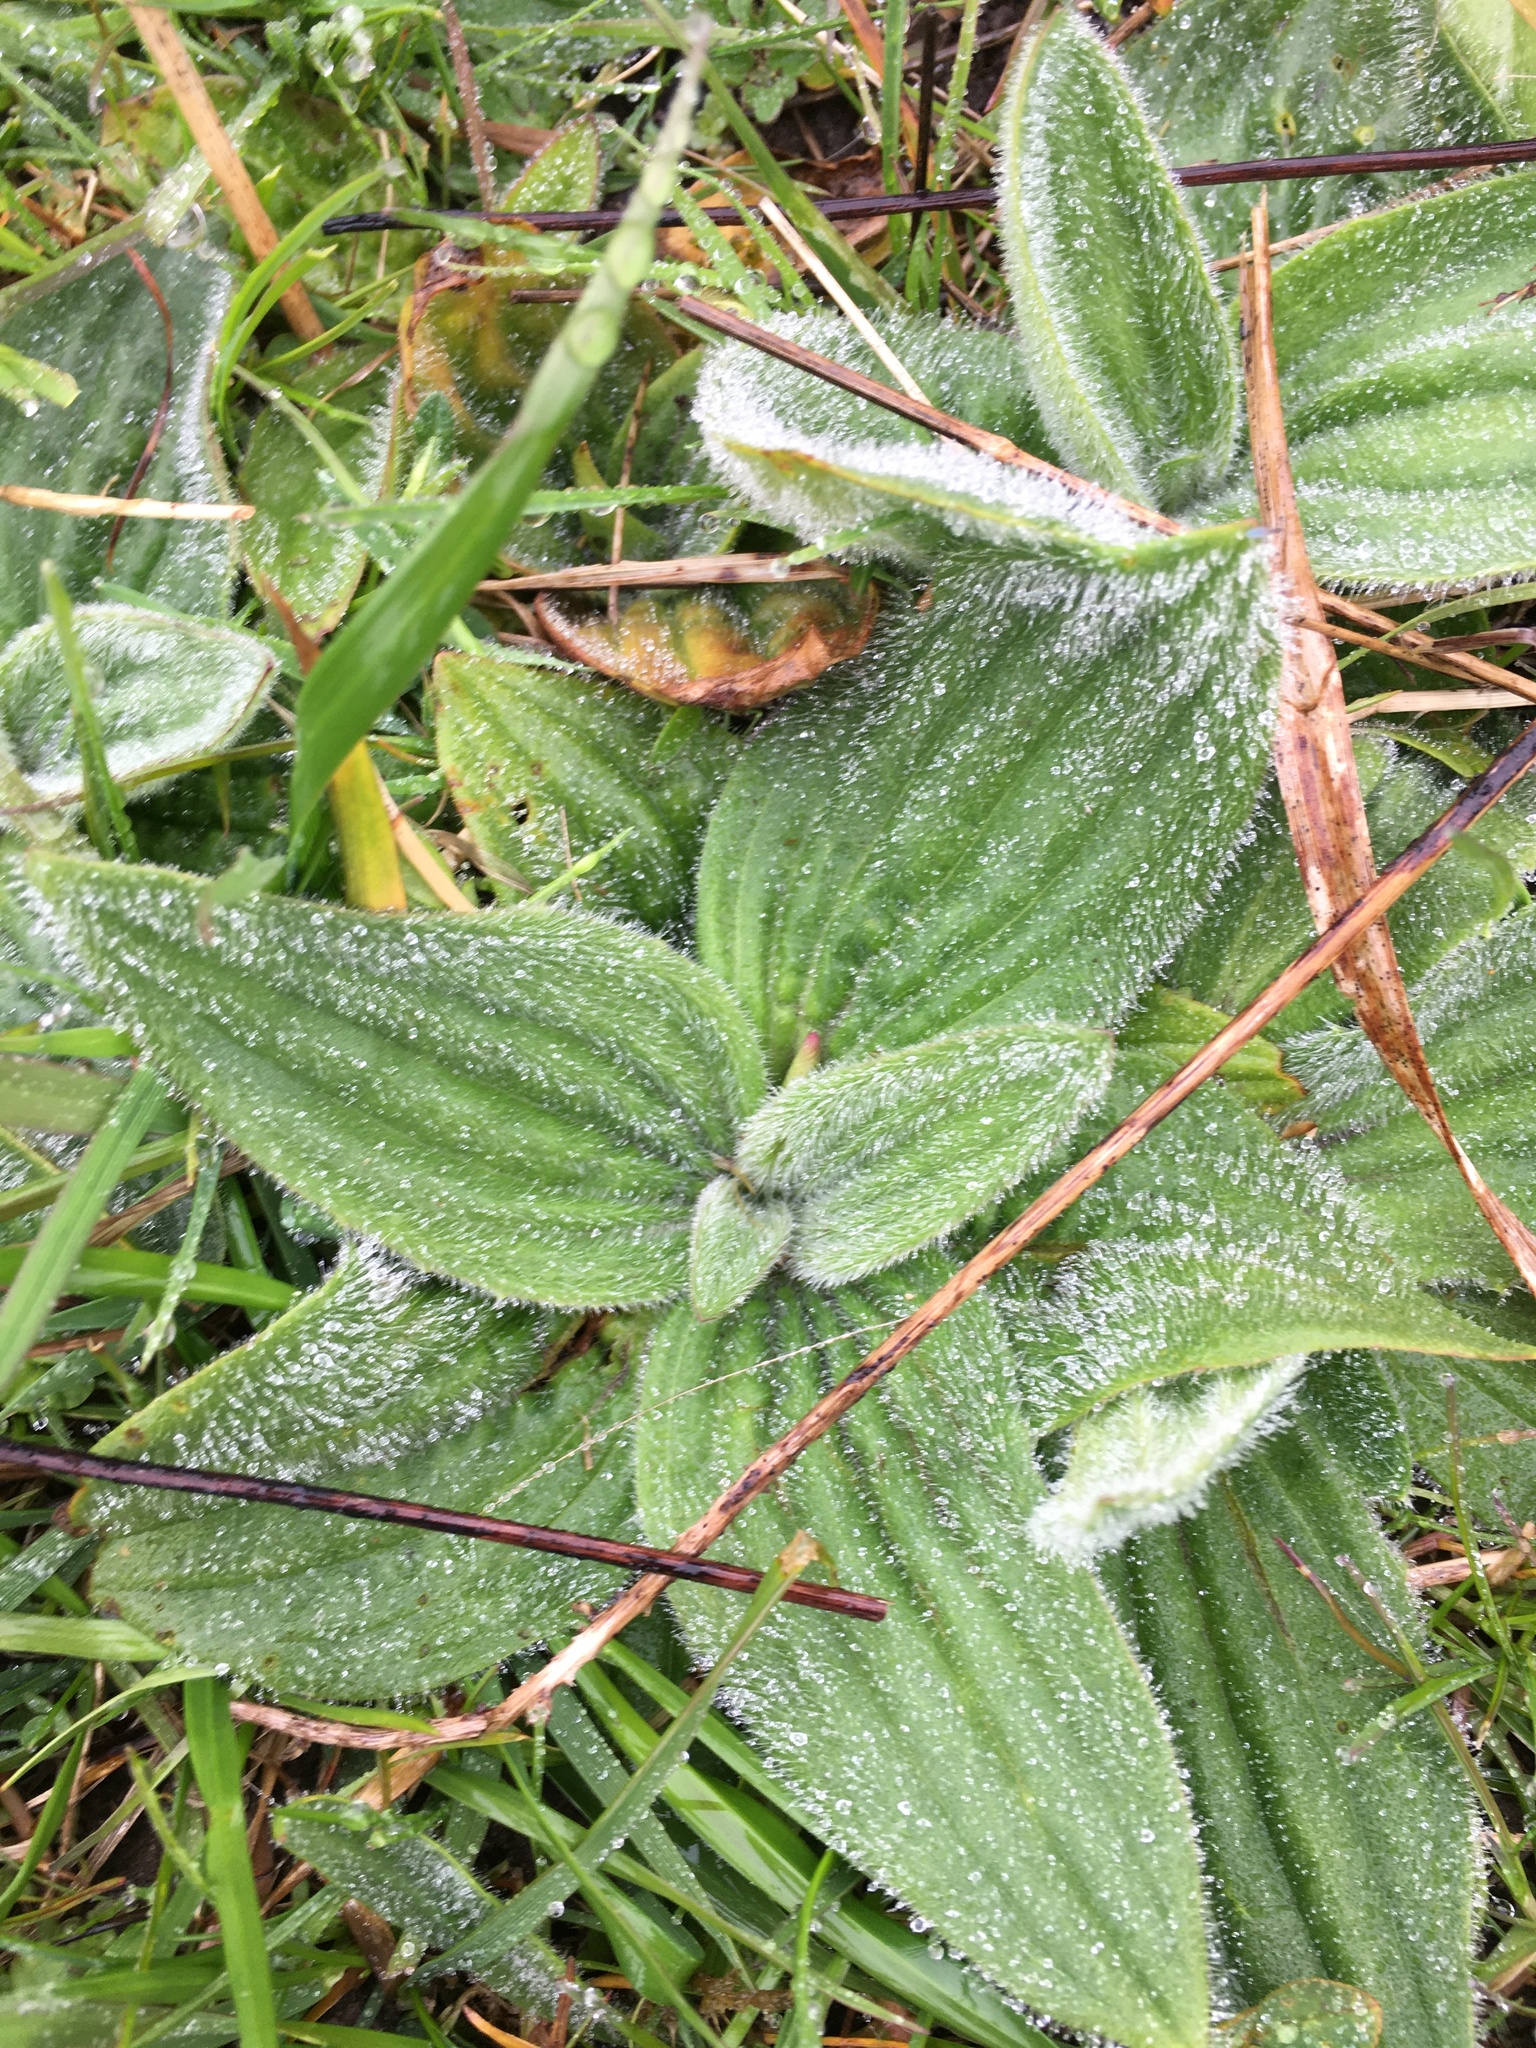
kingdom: Plantae
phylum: Tracheophyta
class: Magnoliopsida
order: Lamiales
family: Plantaginaceae
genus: Plantago
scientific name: Plantago media
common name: Hoary plantain
